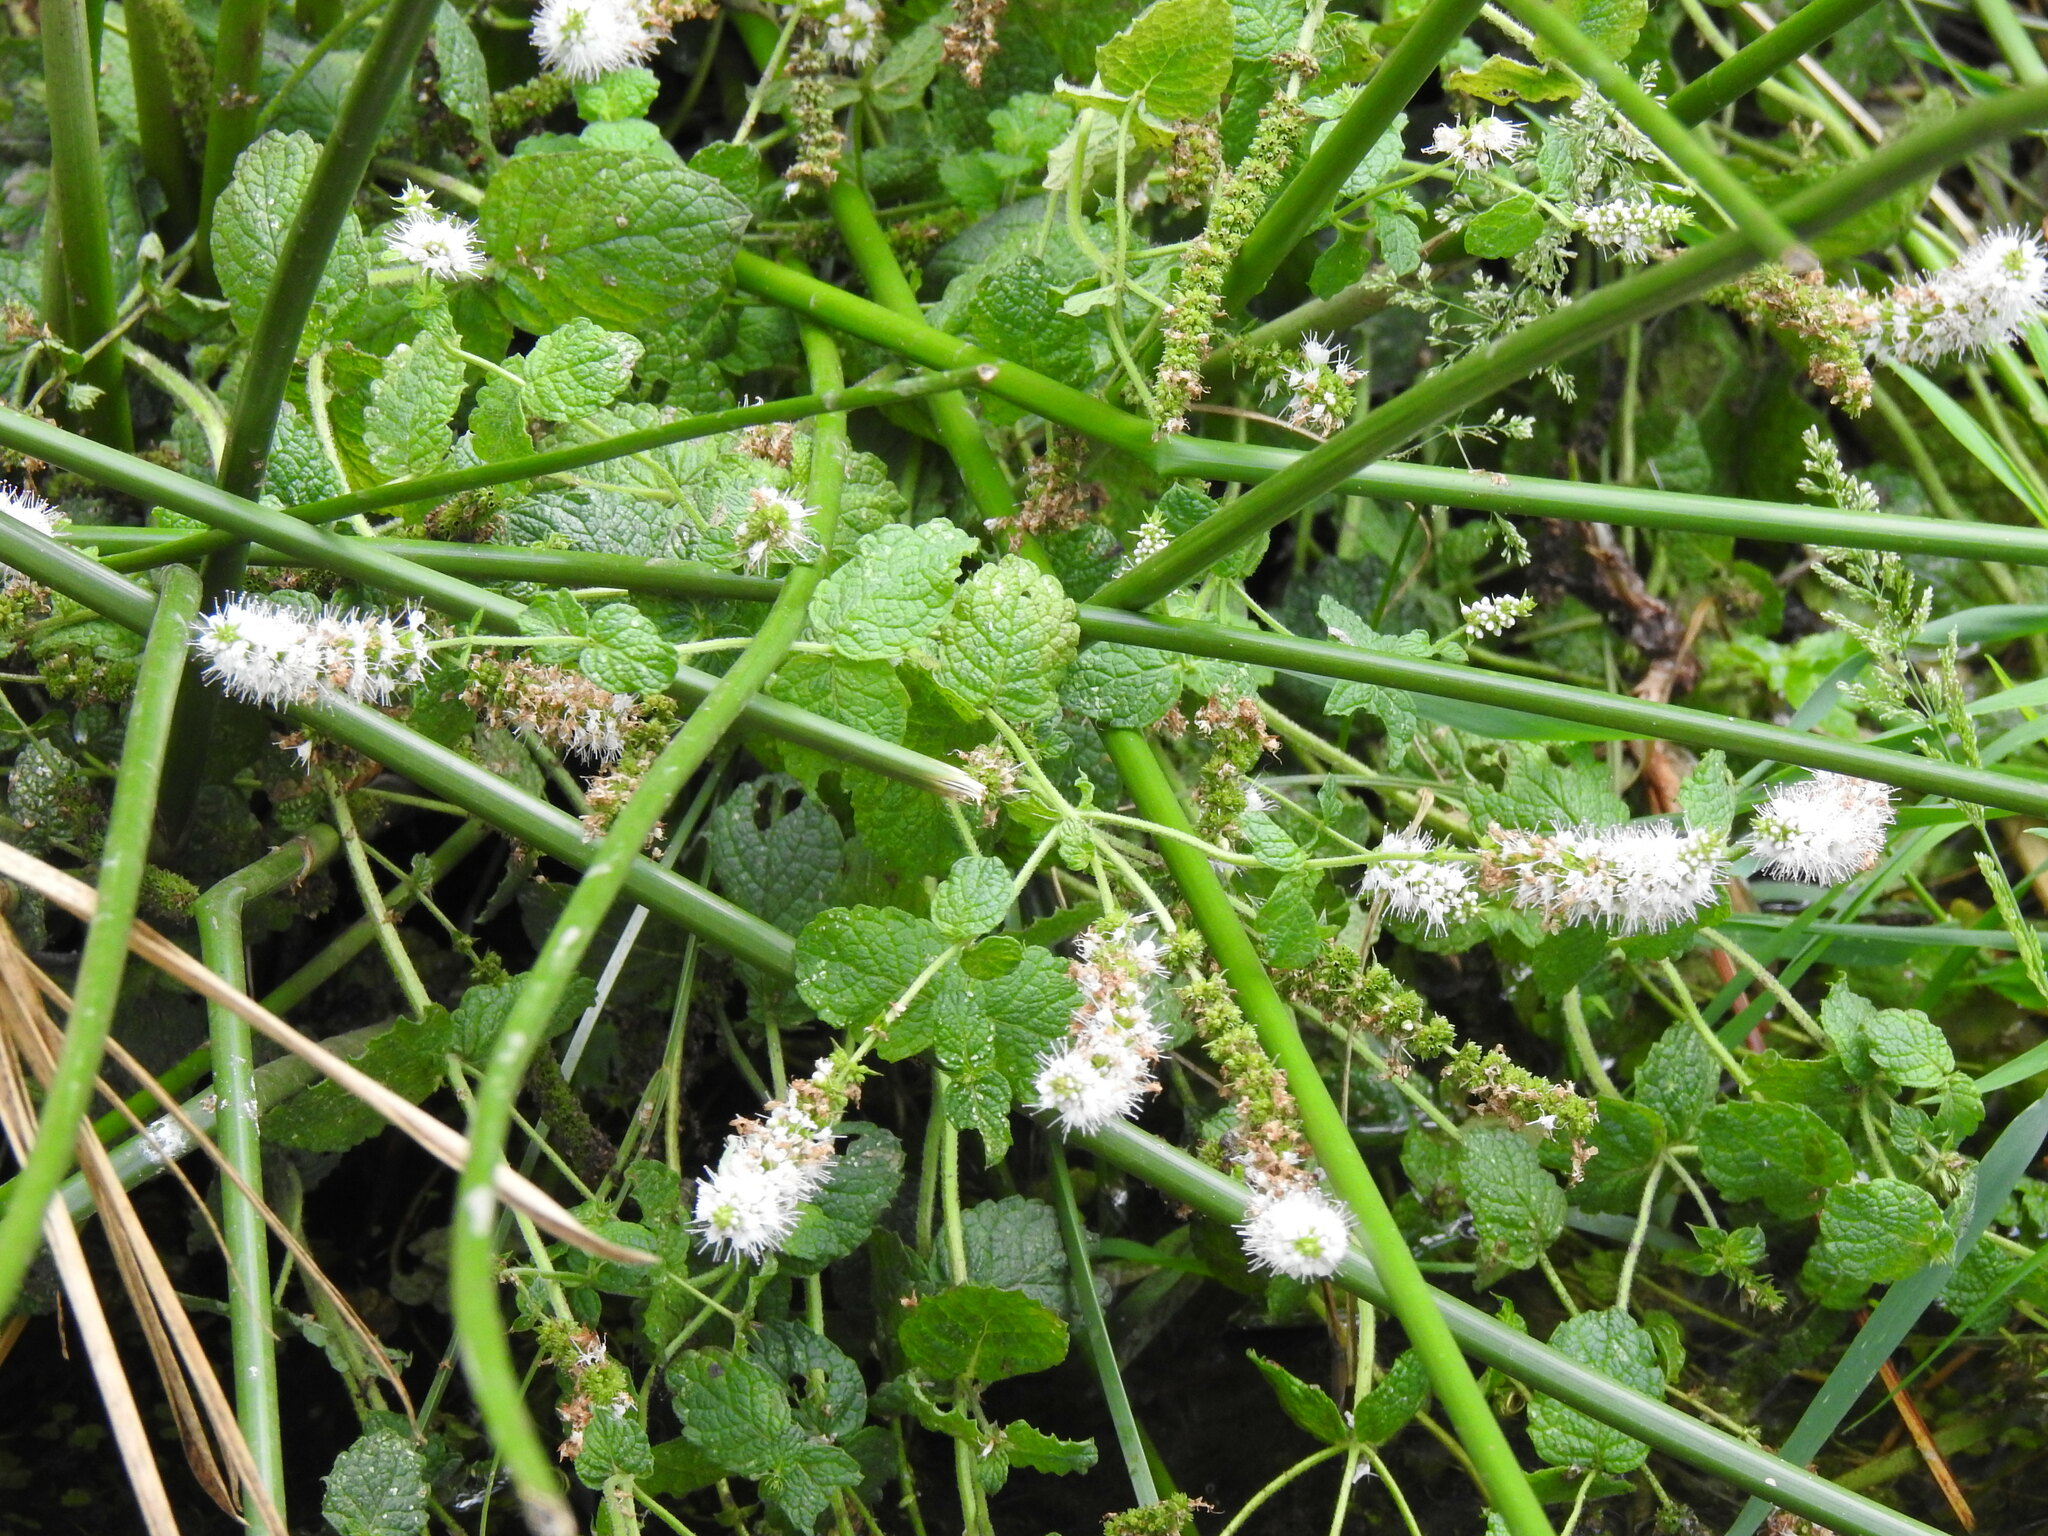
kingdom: Plantae
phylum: Tracheophyta
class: Magnoliopsida
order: Lamiales
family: Lamiaceae
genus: Mentha
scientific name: Mentha suaveolens
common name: Apple mint
